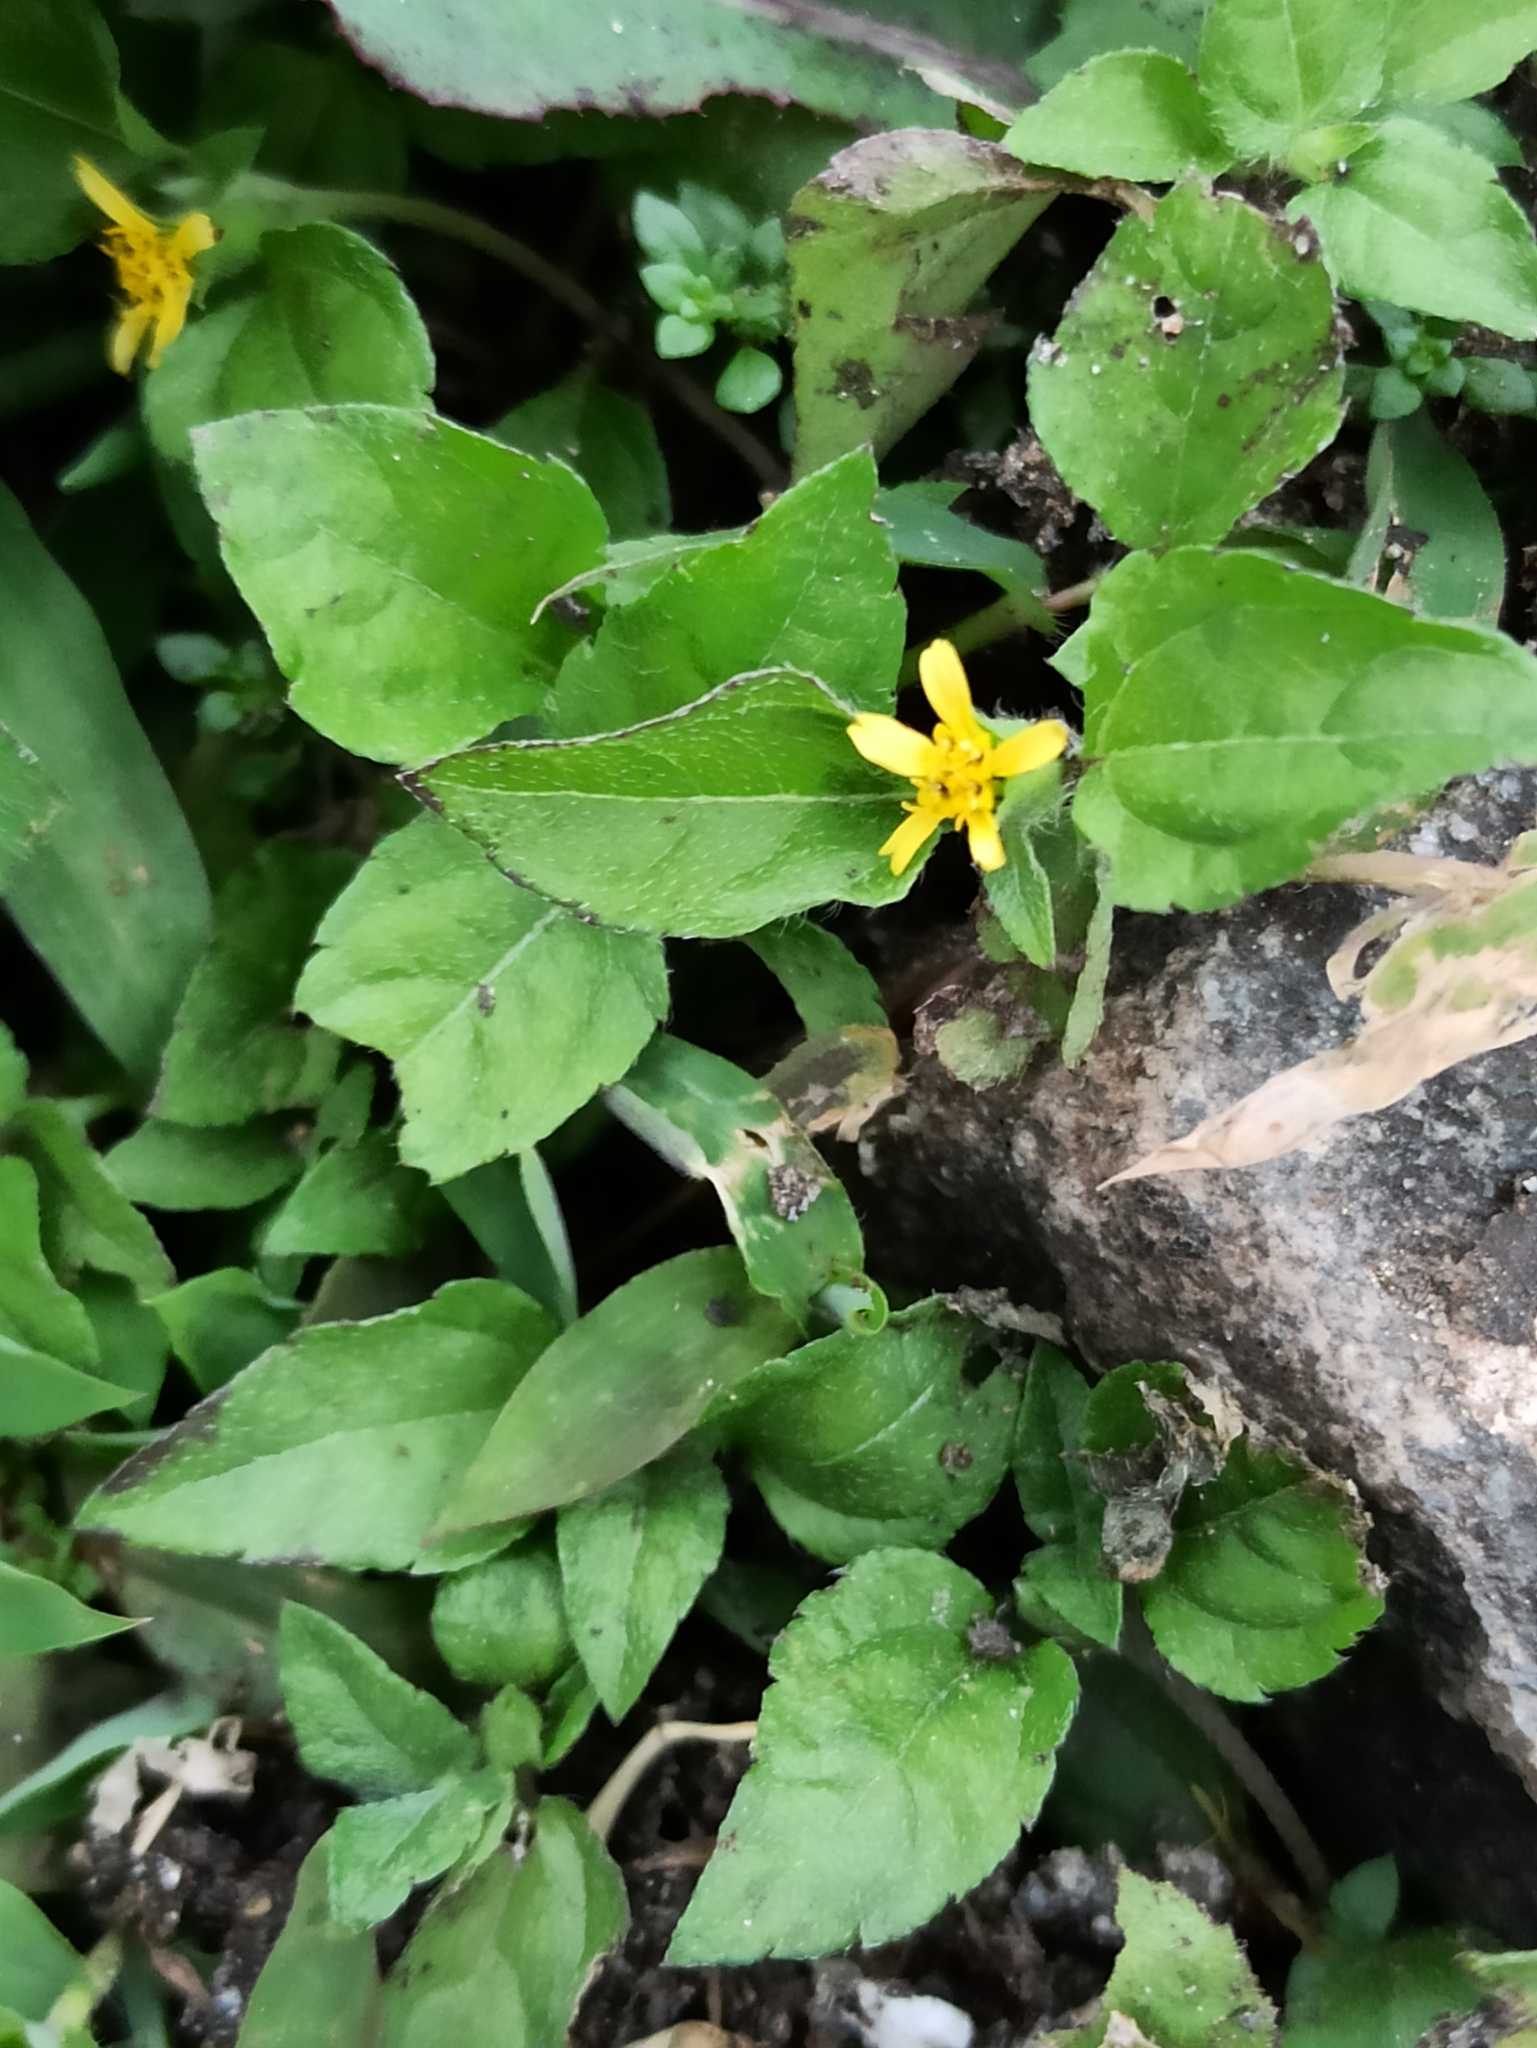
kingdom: Plantae
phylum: Tracheophyta
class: Magnoliopsida
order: Asterales
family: Asteraceae
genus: Calyptocarpus
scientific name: Calyptocarpus vialis
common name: Straggler daisy
